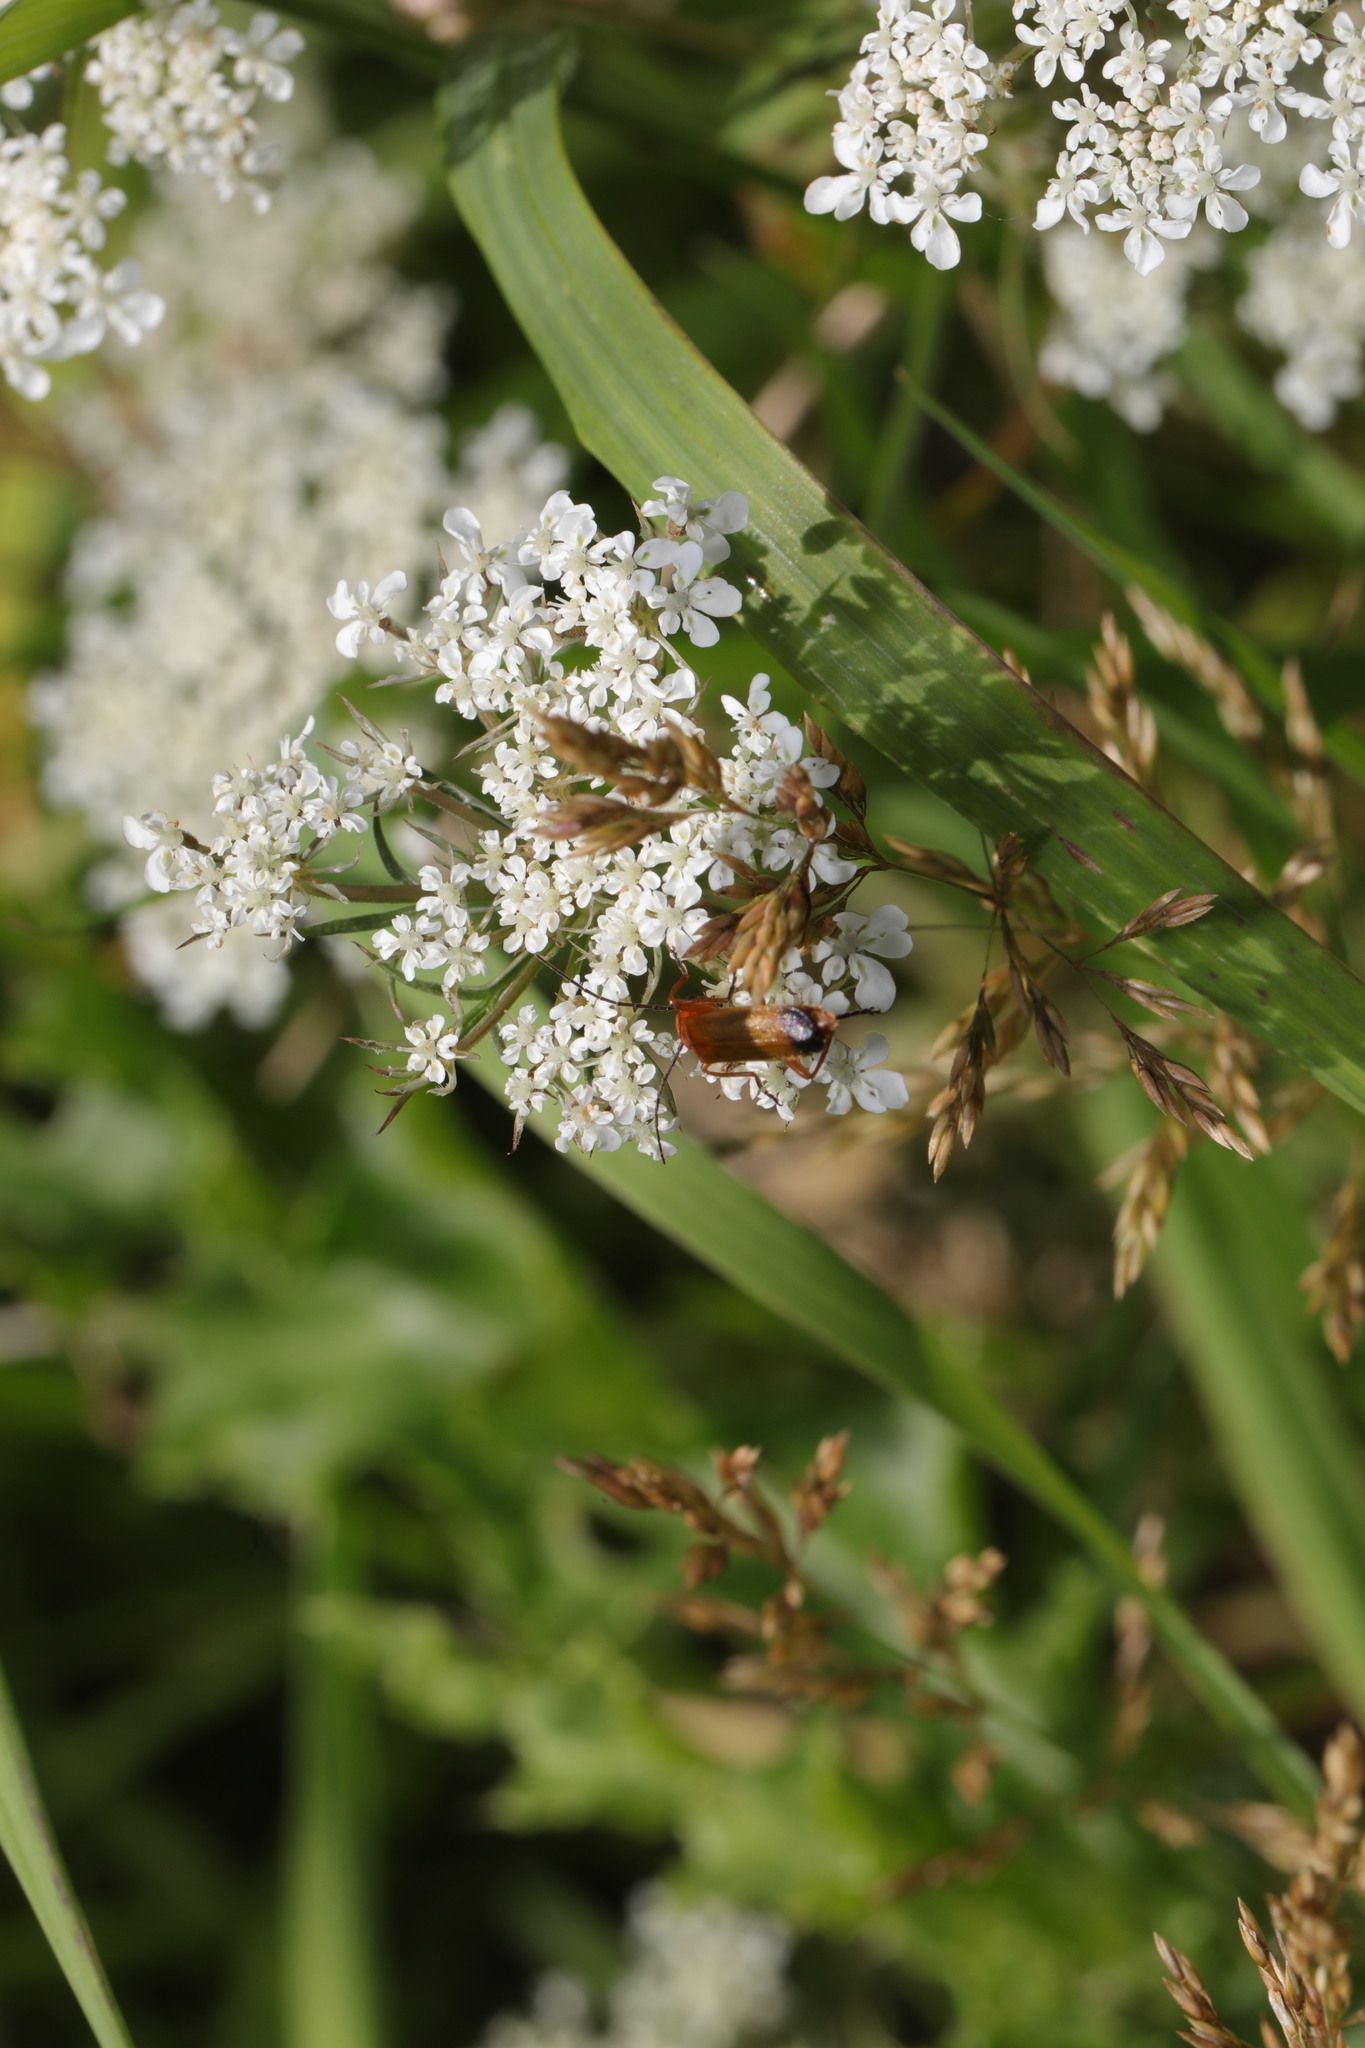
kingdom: Animalia
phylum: Arthropoda
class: Insecta
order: Coleoptera
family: Cantharidae
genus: Rhagonycha
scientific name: Rhagonycha fulva
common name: Common red soldier beetle
